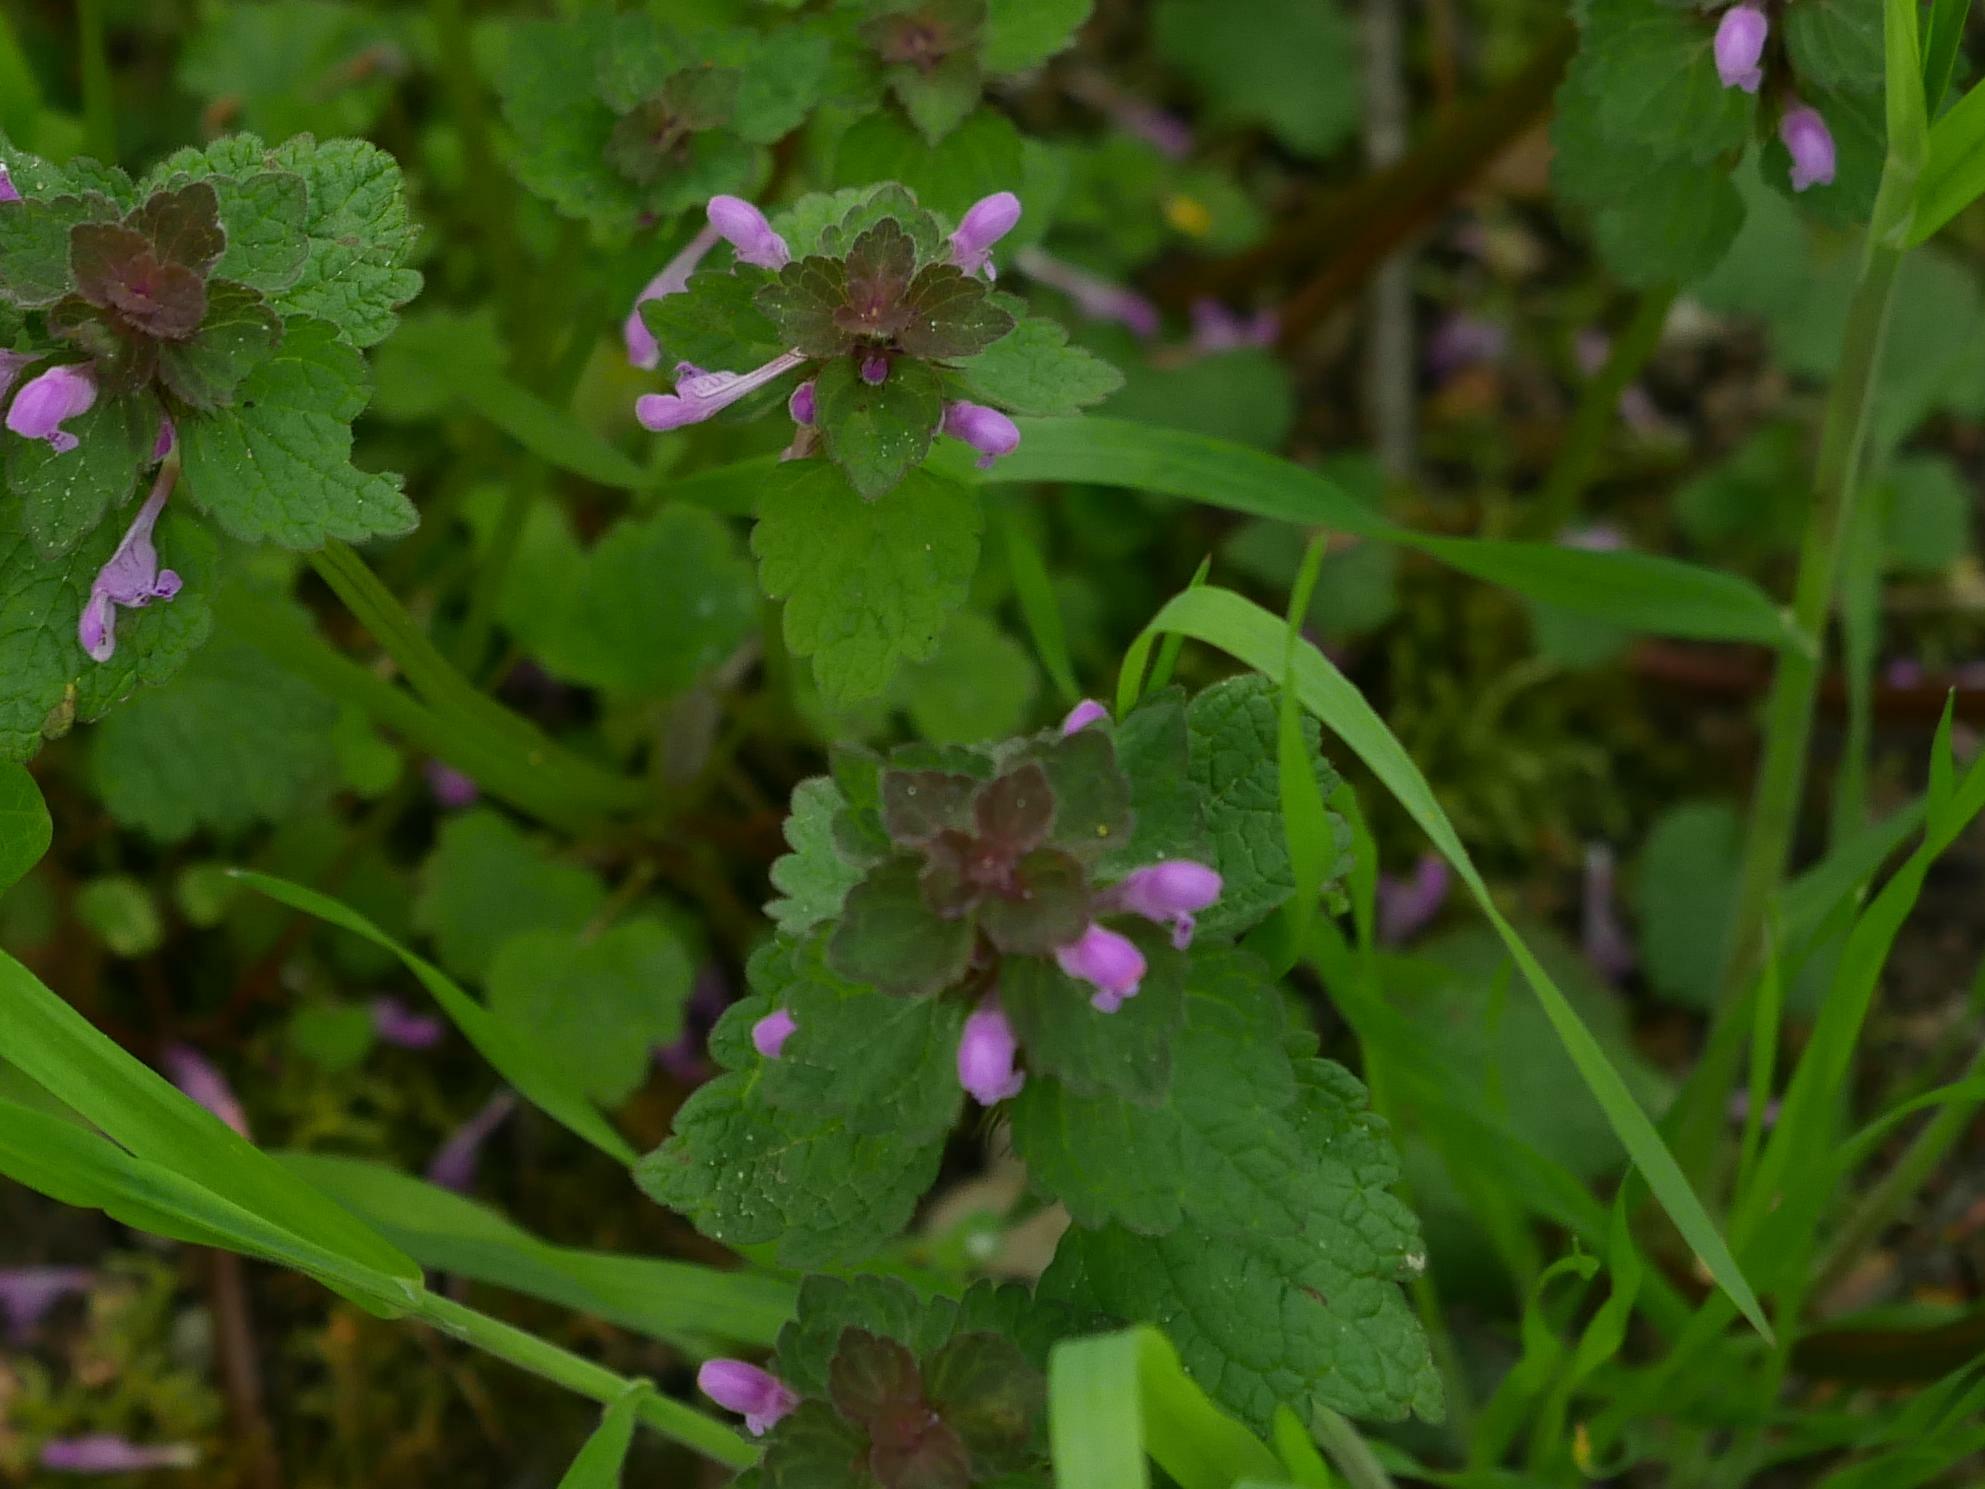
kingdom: Plantae
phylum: Tracheophyta
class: Magnoliopsida
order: Lamiales
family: Lamiaceae
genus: Lamium
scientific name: Lamium purpureum
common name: Red dead-nettle
